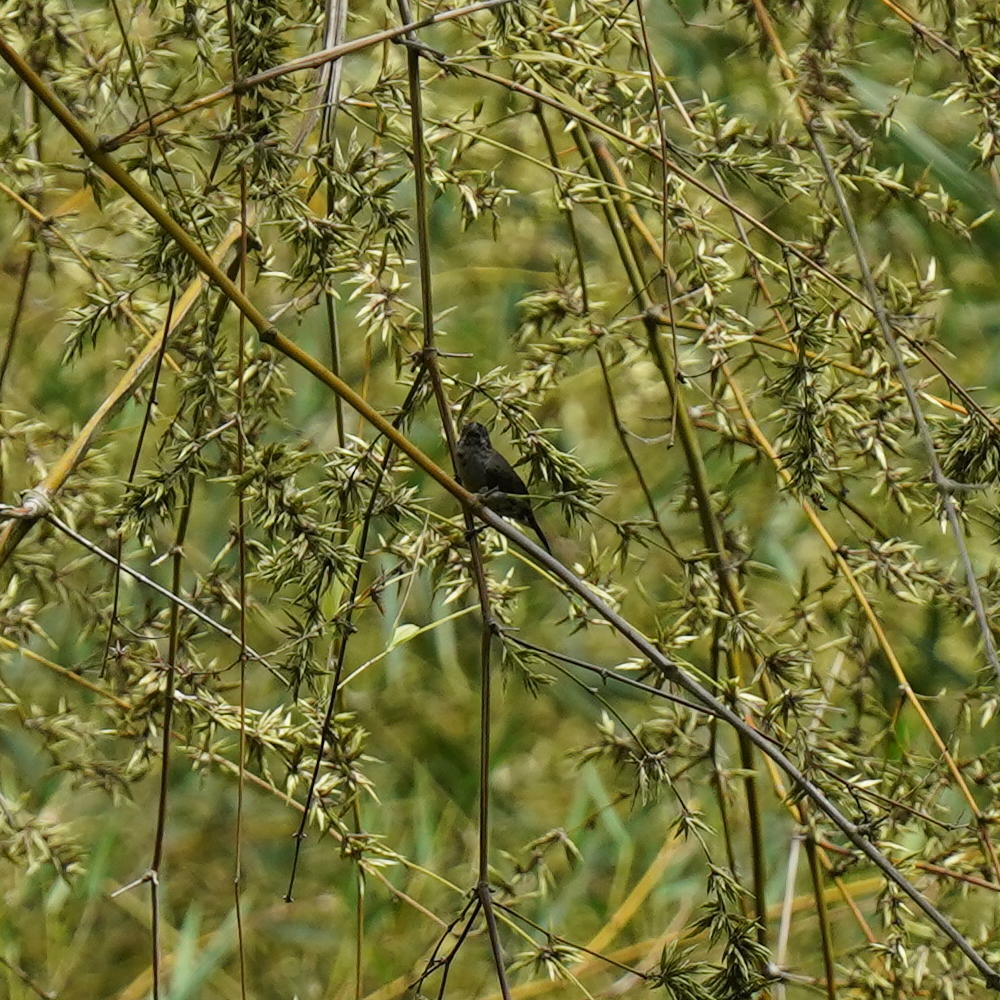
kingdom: Animalia
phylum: Chordata
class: Aves
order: Passeriformes
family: Thraupidae
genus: Sporophila
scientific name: Sporophila schistacea
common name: Slate-colored seedeater
